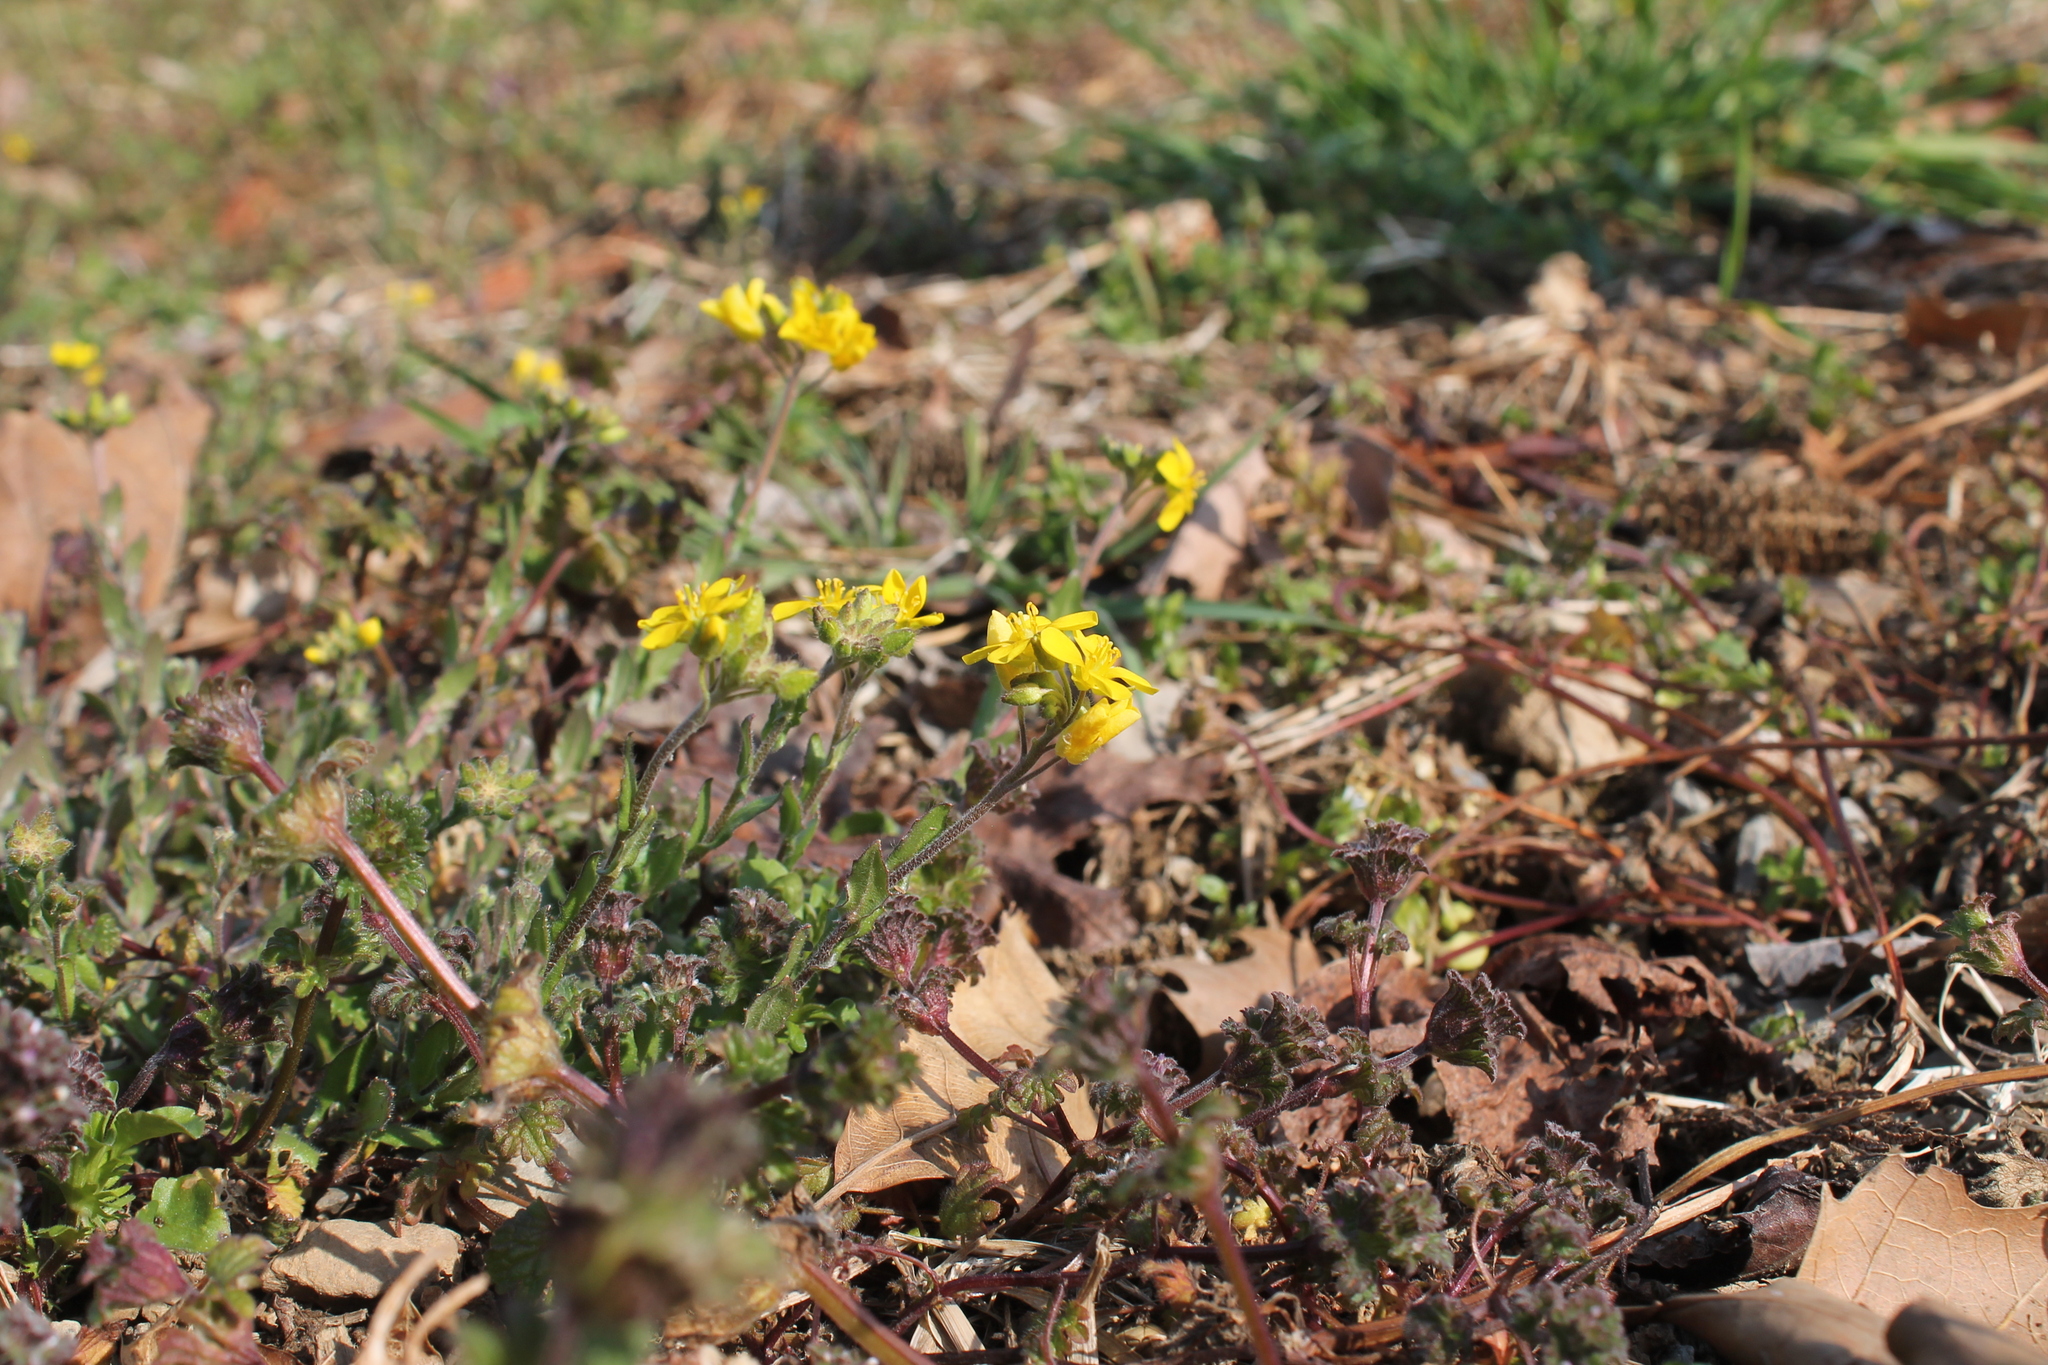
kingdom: Plantae
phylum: Tracheophyta
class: Magnoliopsida
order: Brassicales
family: Brassicaceae
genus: Paysonia
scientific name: Paysonia lescurii
